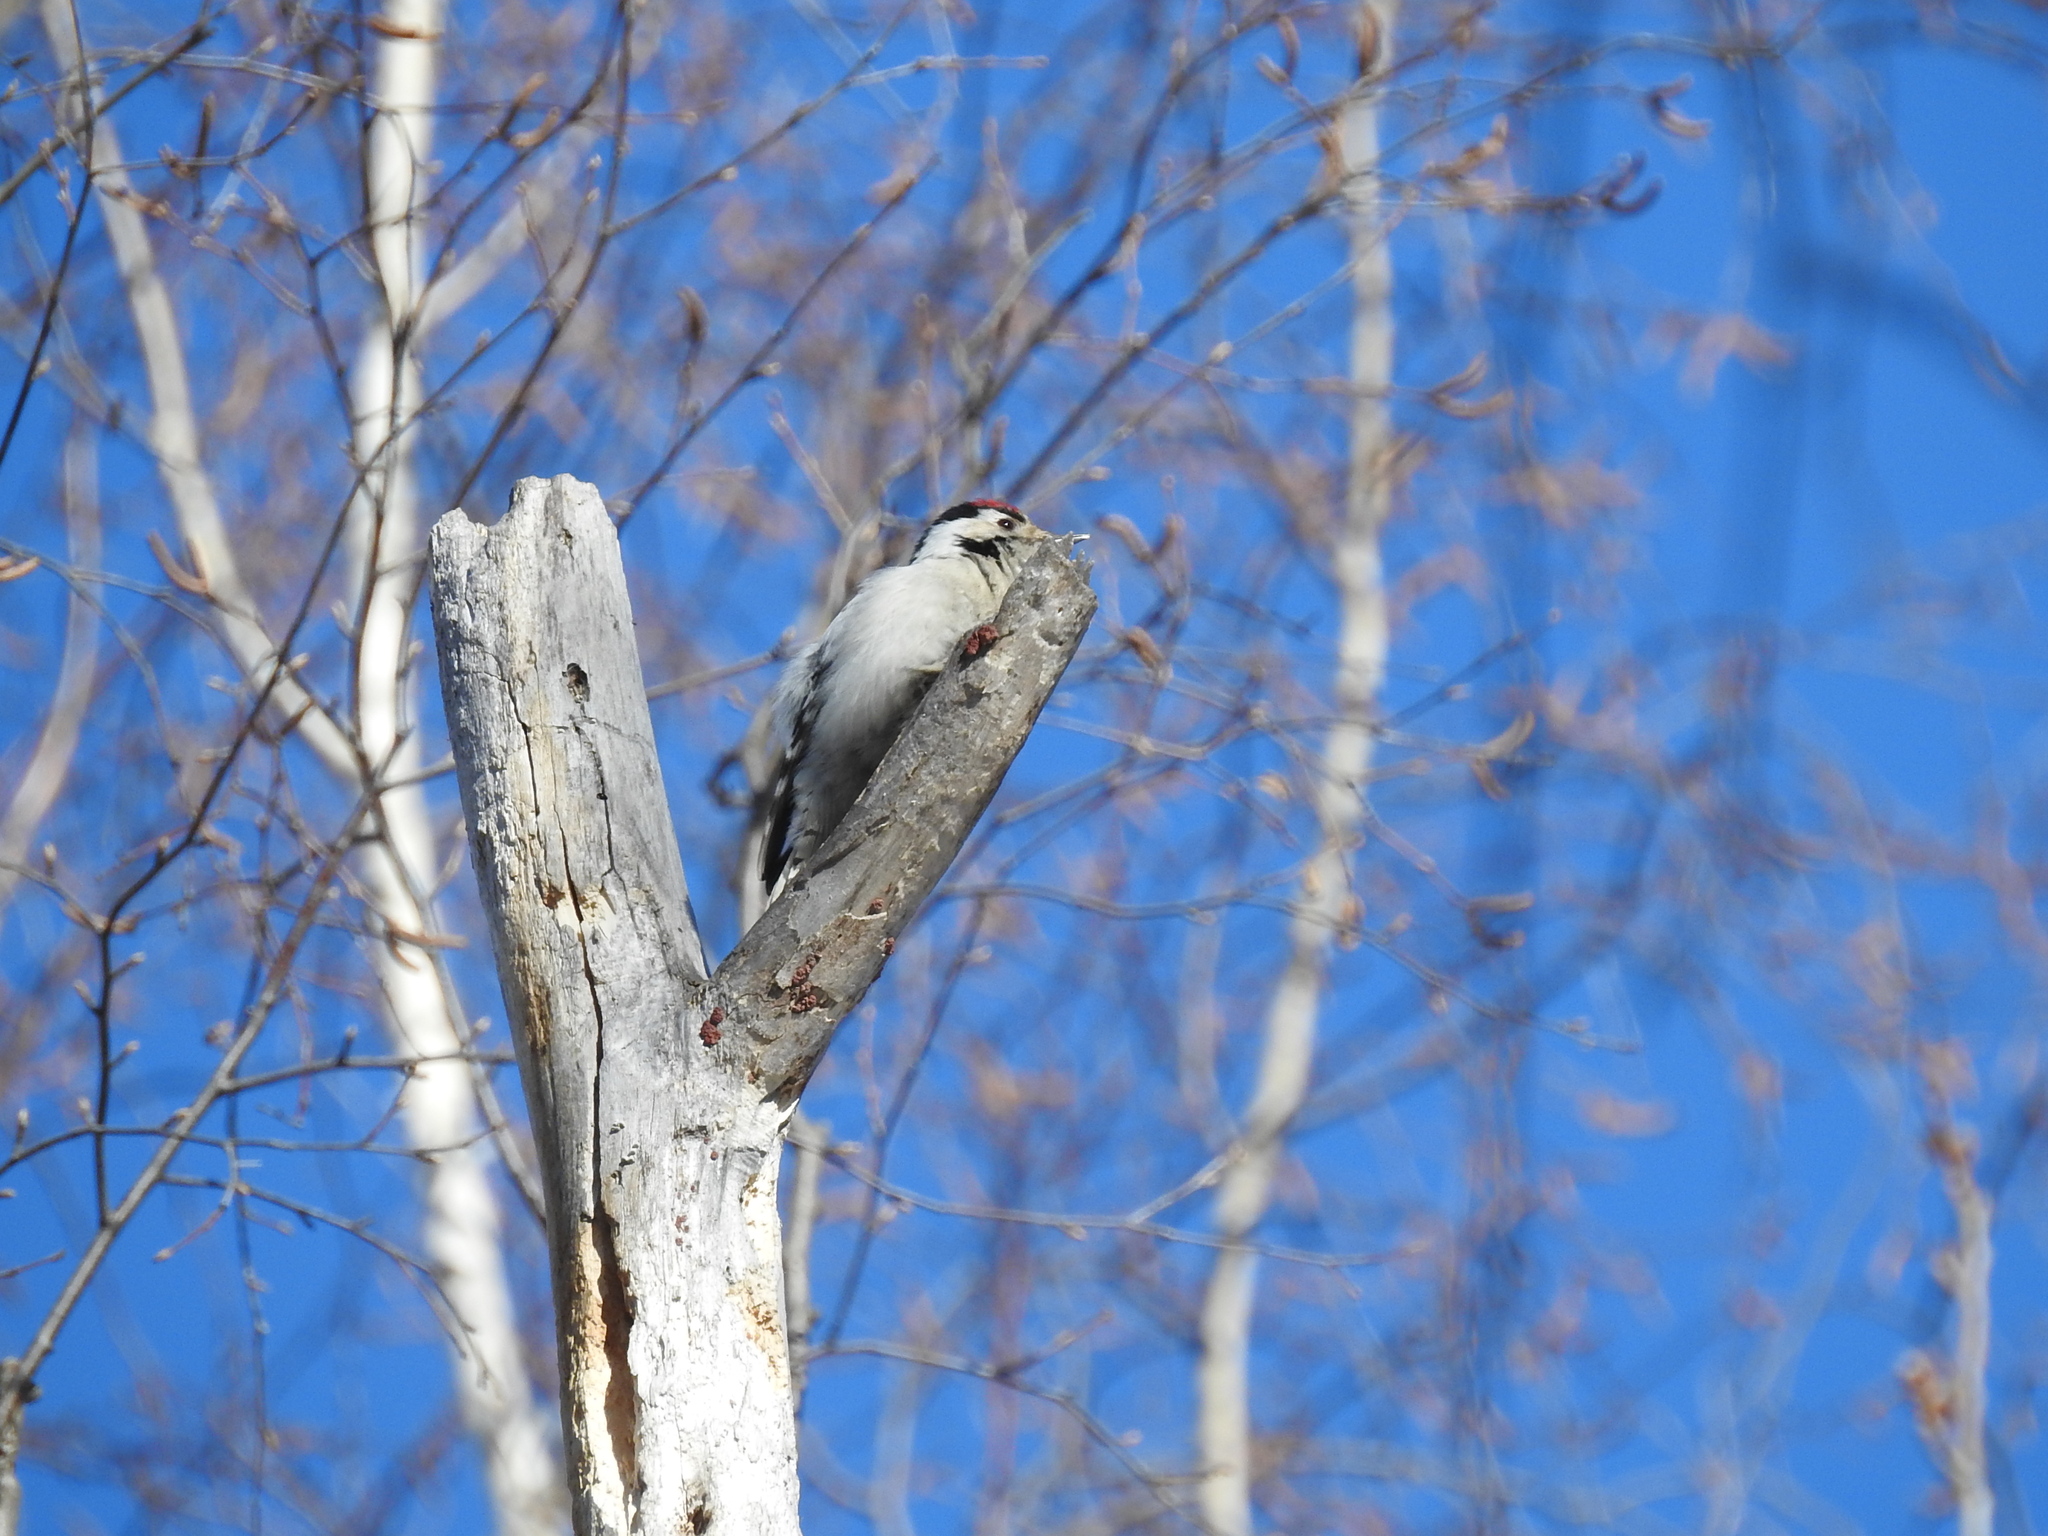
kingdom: Animalia
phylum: Chordata
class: Aves
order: Piciformes
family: Picidae
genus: Dryobates
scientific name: Dryobates minor
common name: Lesser spotted woodpecker
